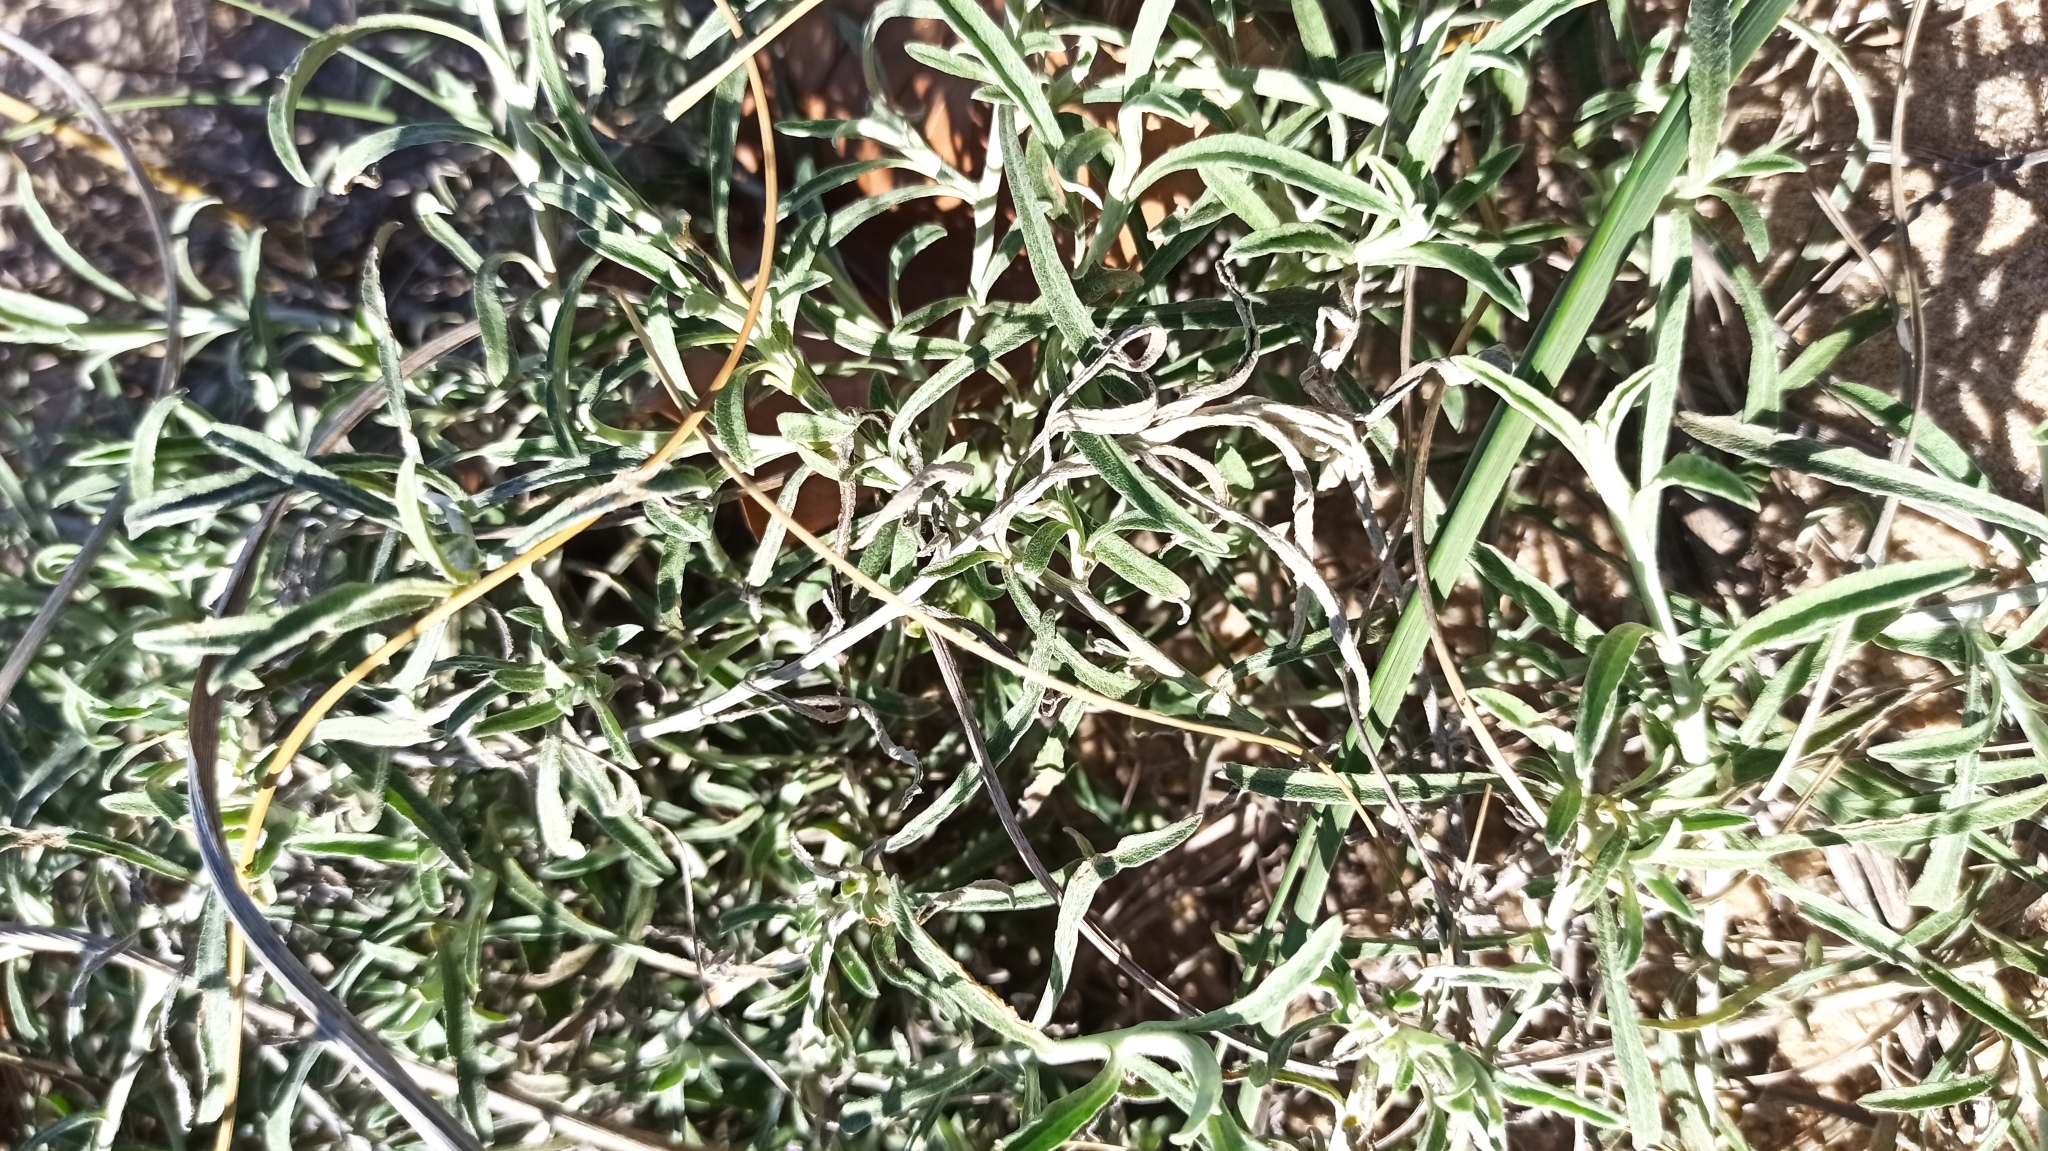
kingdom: Plantae
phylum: Tracheophyta
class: Magnoliopsida
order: Asterales
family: Asteraceae
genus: Achyrocline
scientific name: Achyrocline satureioides
